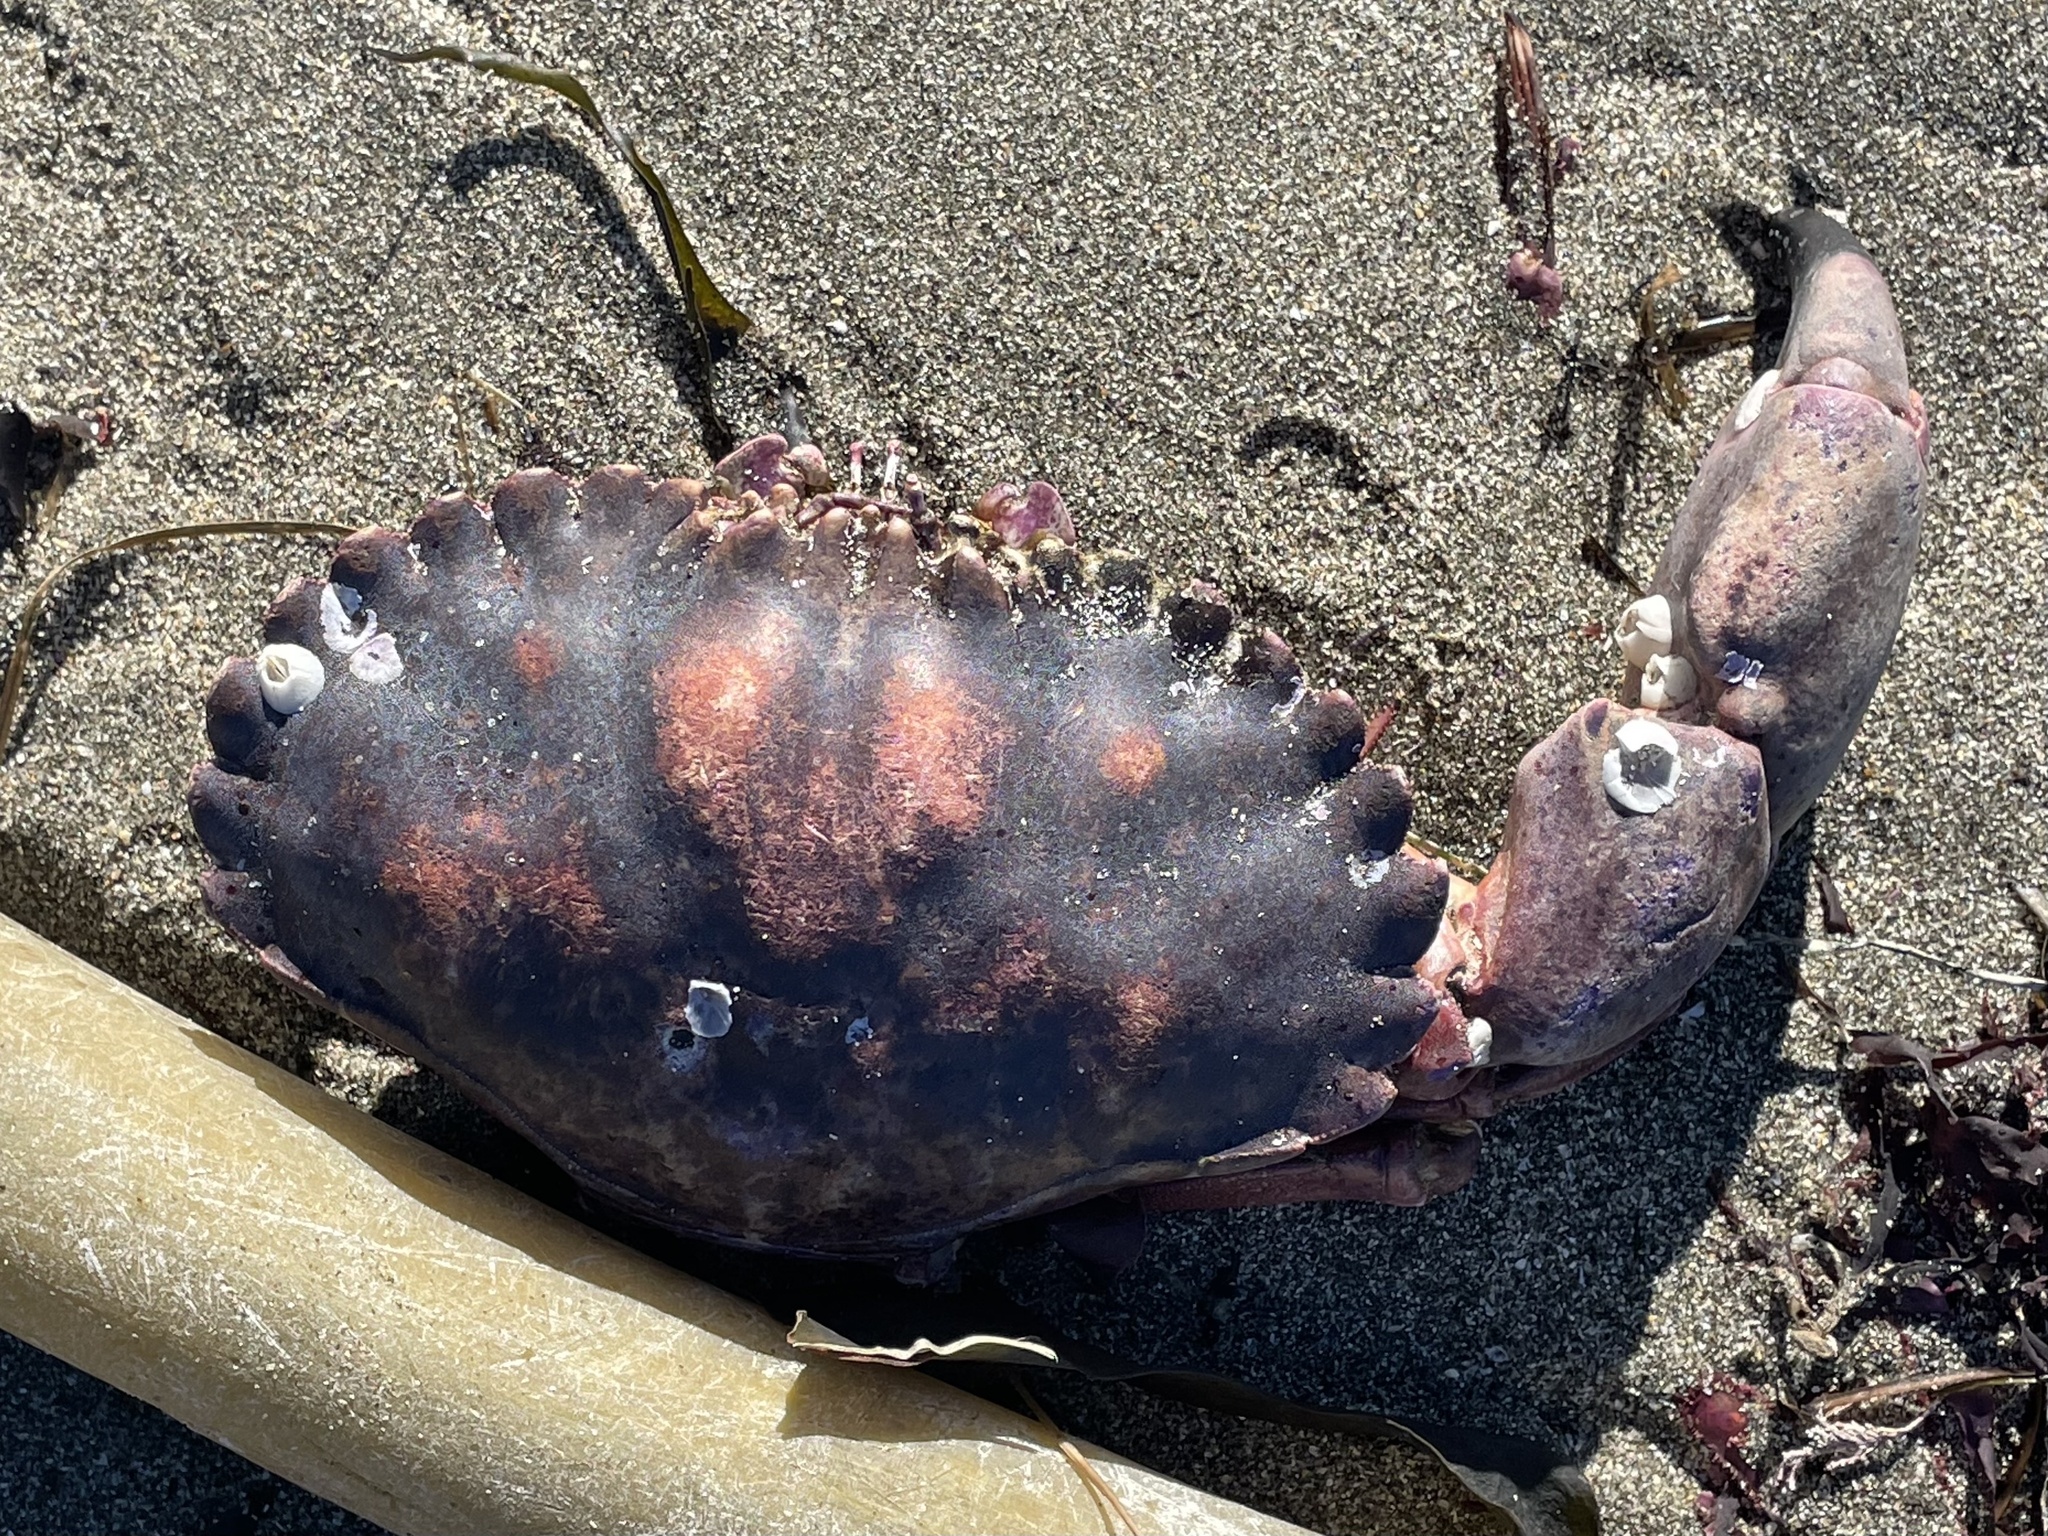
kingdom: Animalia
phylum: Arthropoda
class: Malacostraca
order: Decapoda
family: Cancridae
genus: Romaleon
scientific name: Romaleon antennarium
